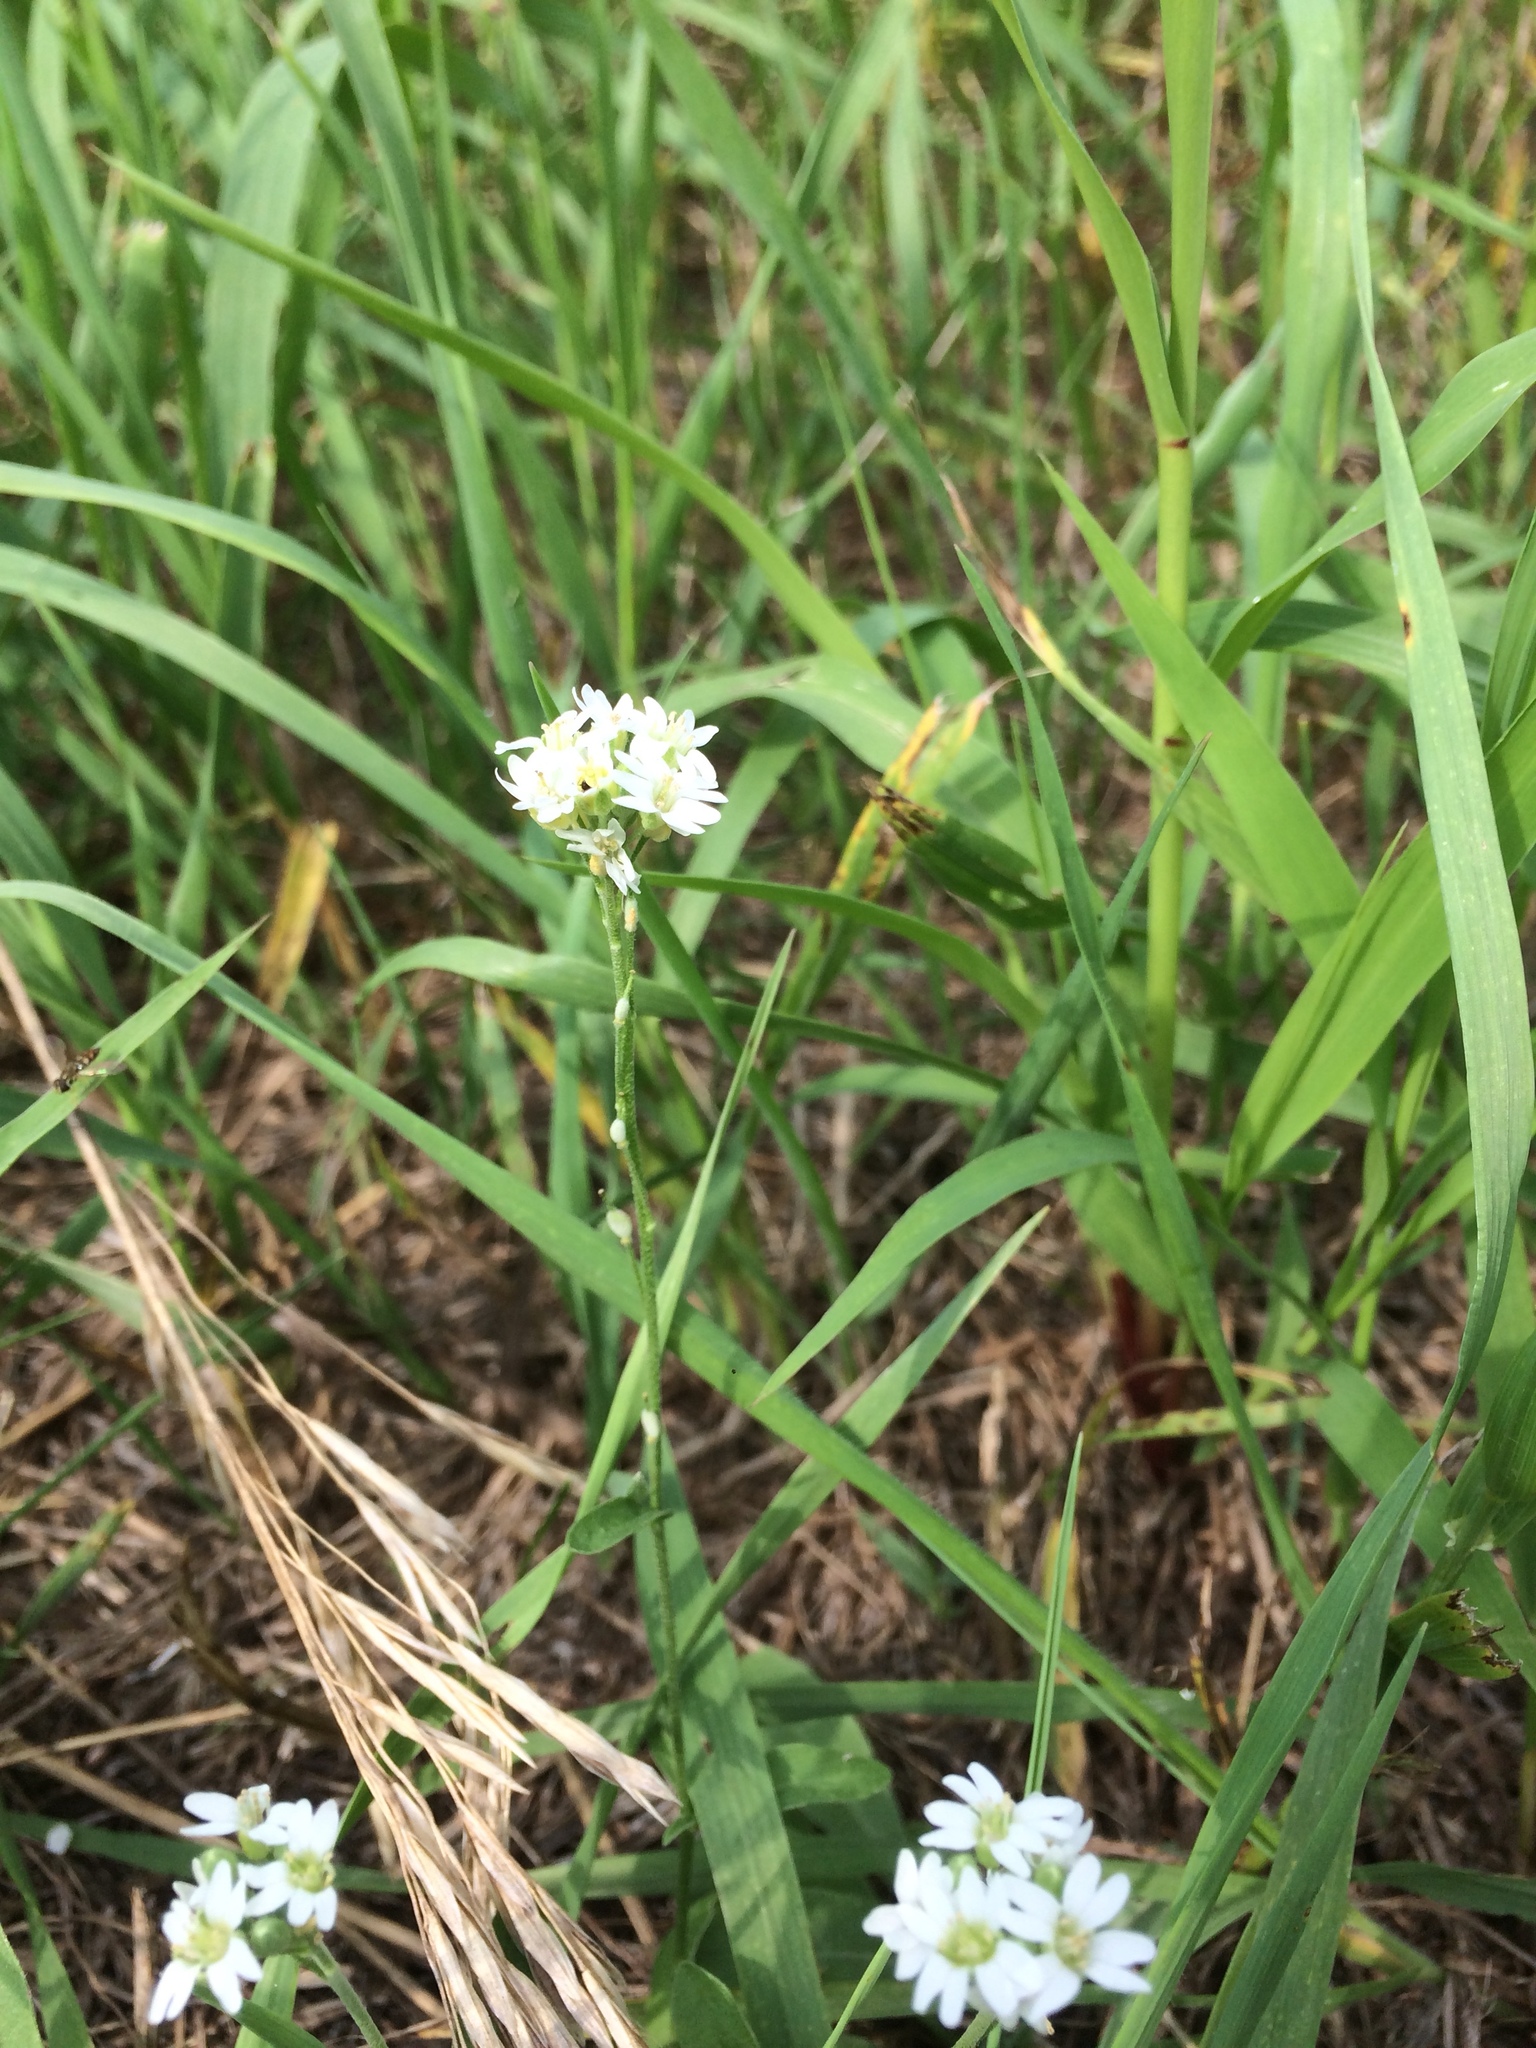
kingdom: Plantae
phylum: Tracheophyta
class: Magnoliopsida
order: Brassicales
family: Brassicaceae
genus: Berteroa
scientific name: Berteroa incana
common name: Hoary alison
